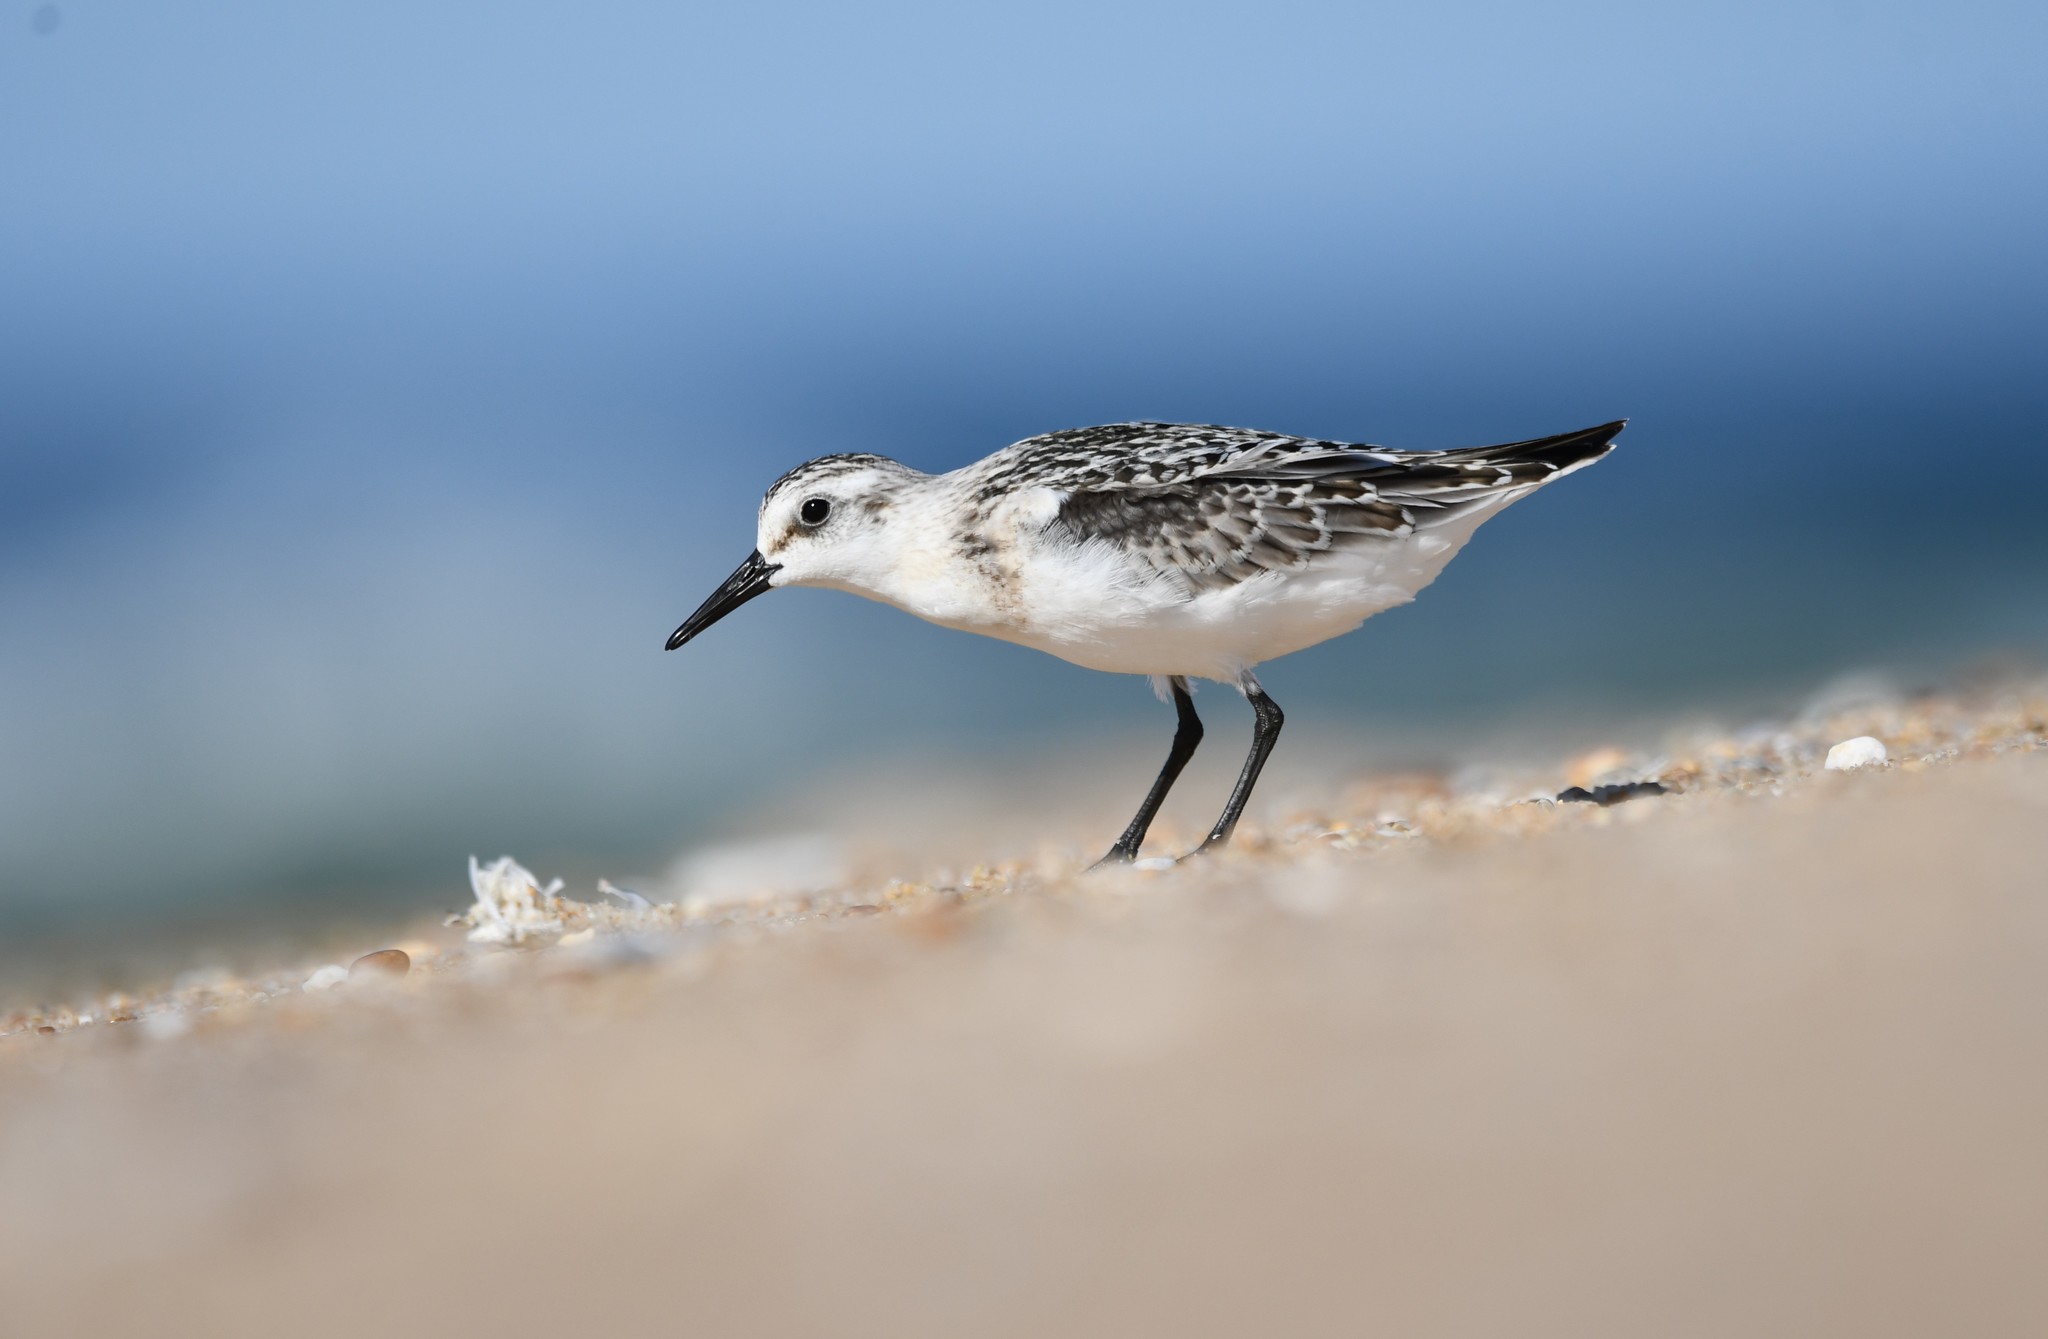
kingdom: Animalia
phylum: Chordata
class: Aves
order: Charadriiformes
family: Scolopacidae
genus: Calidris
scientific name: Calidris alba
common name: Sanderling
